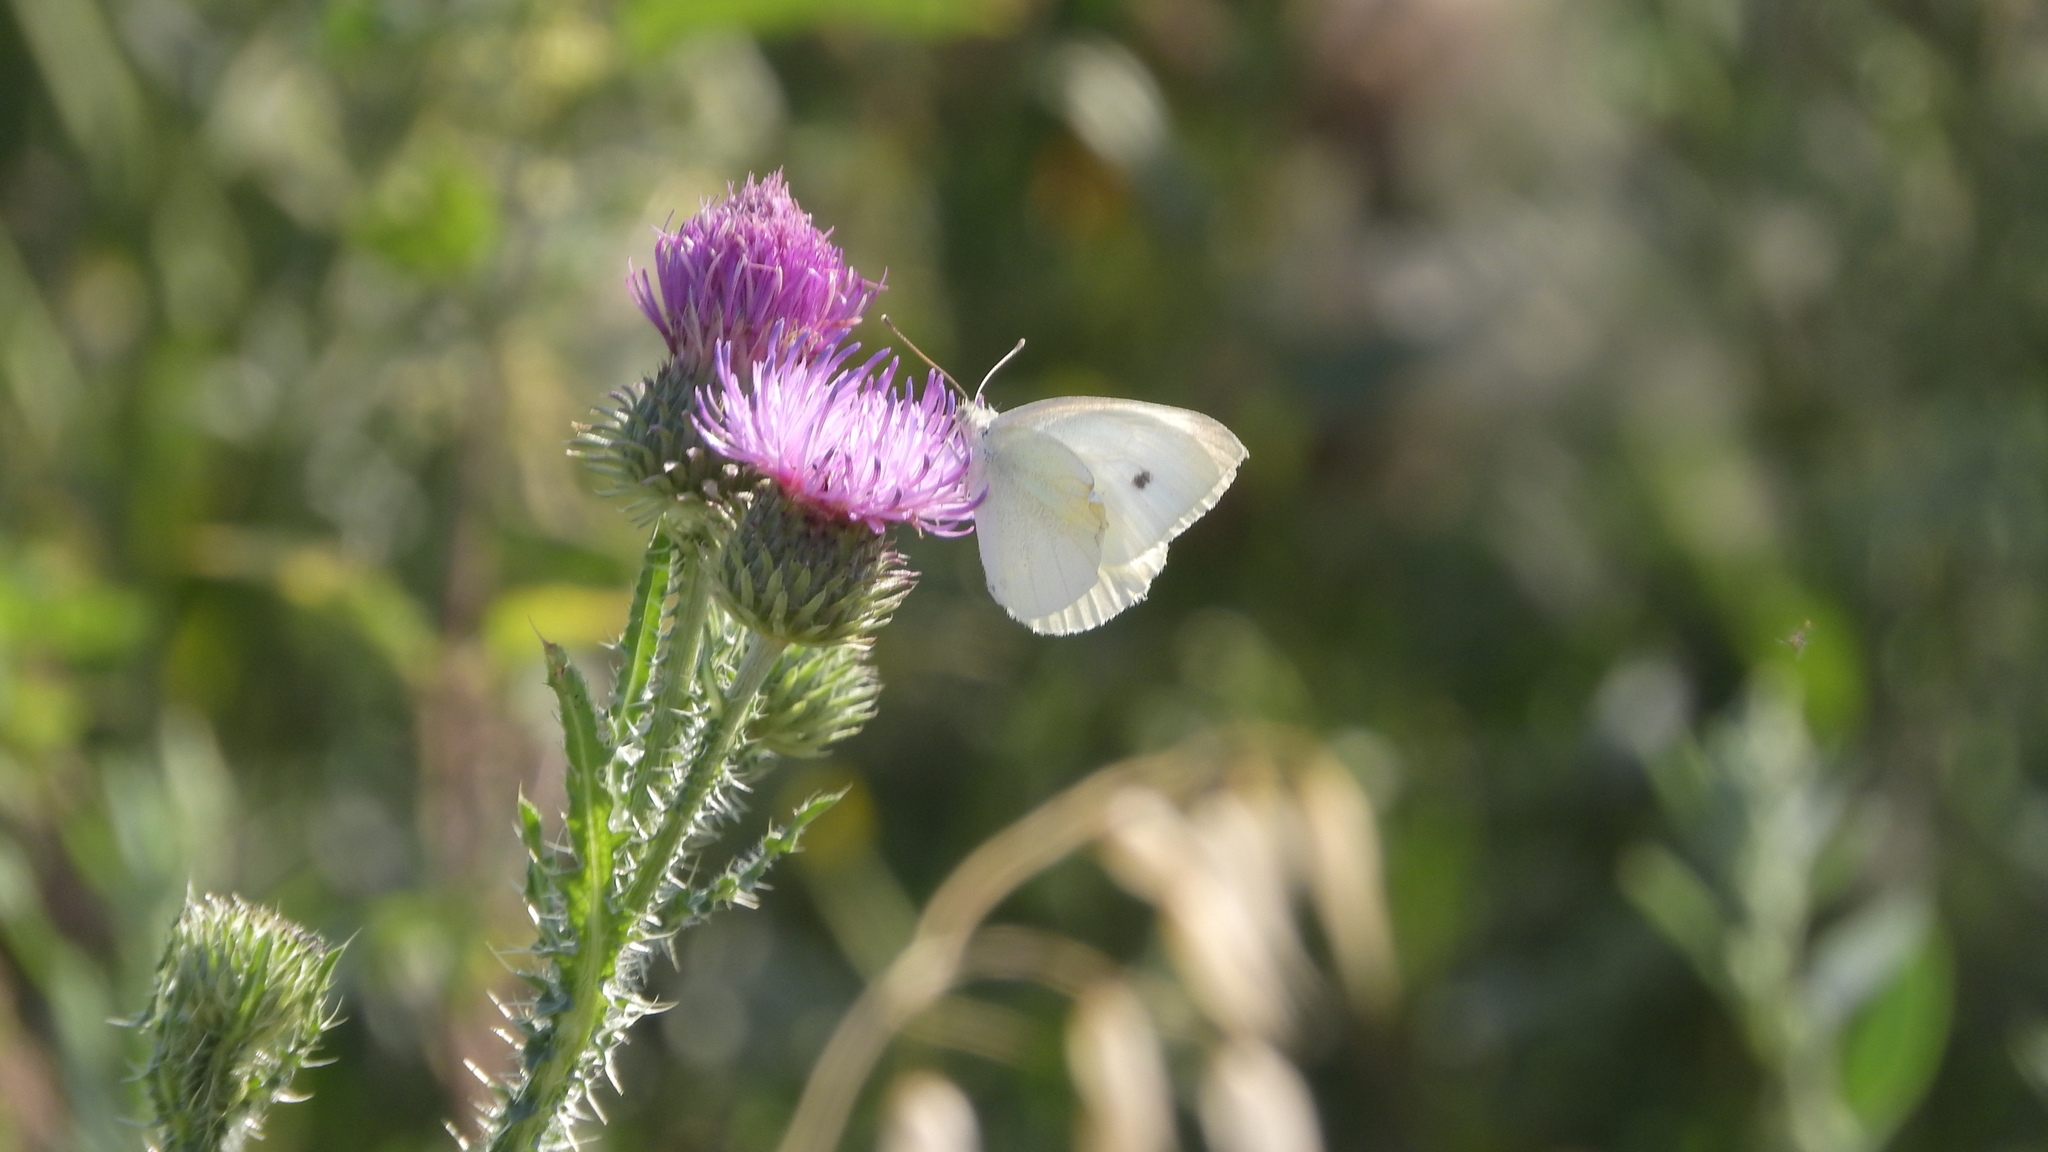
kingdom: Animalia
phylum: Arthropoda
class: Insecta
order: Lepidoptera
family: Pieridae
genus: Pieris
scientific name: Pieris rapae
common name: Small white
